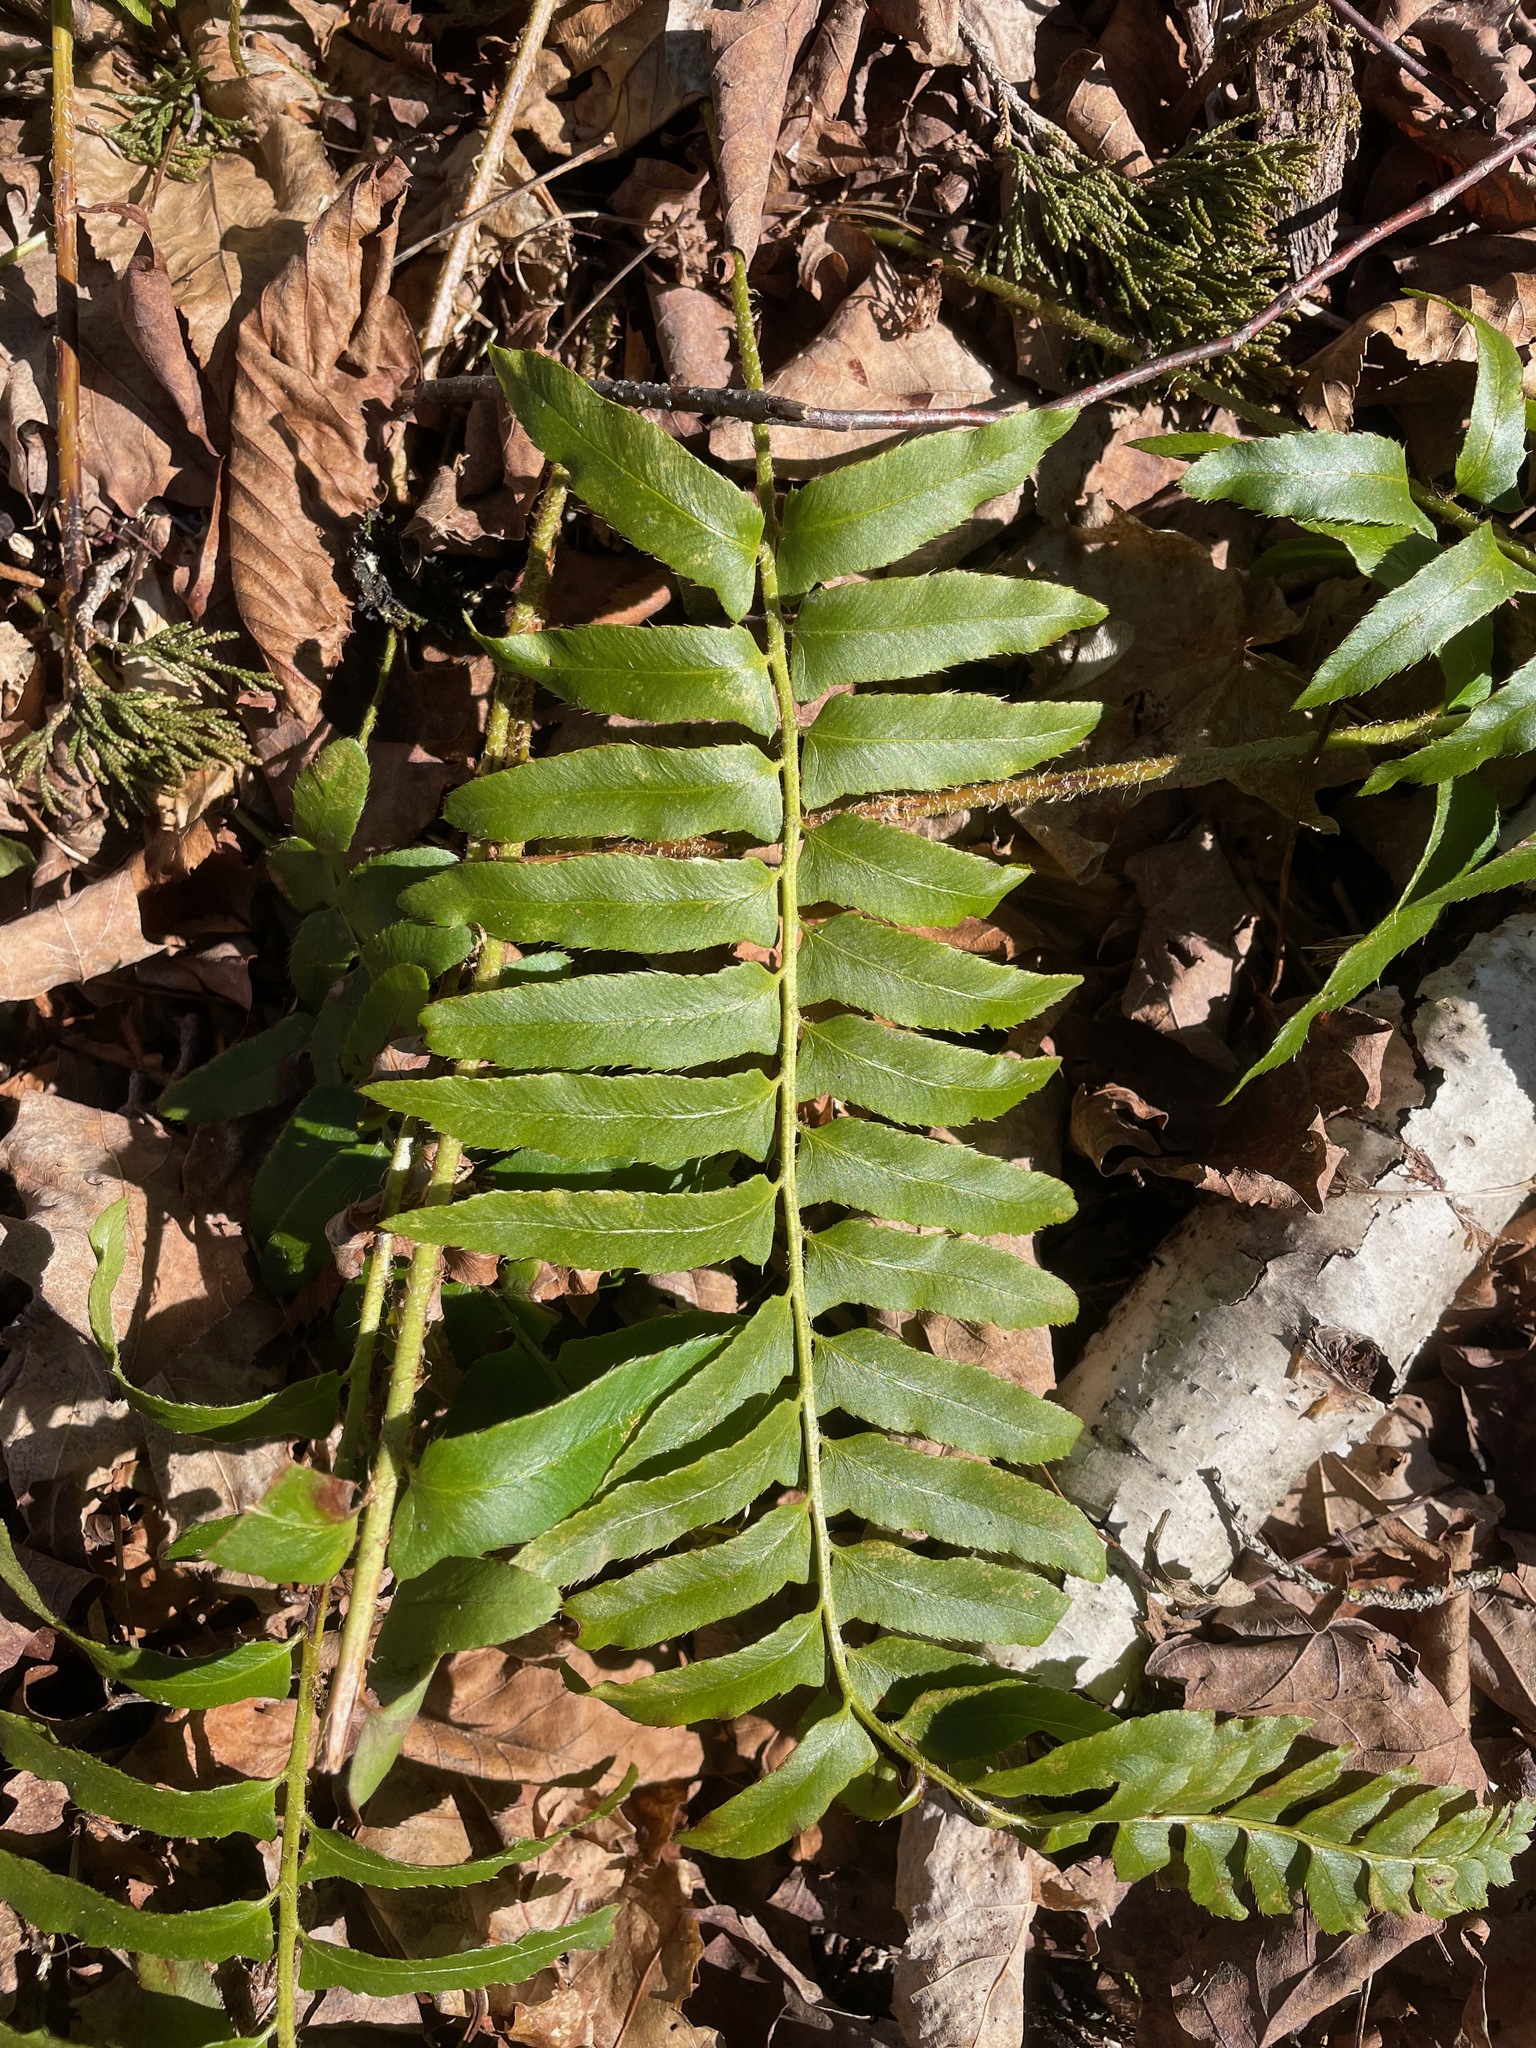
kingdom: Plantae
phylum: Tracheophyta
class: Polypodiopsida
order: Polypodiales
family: Dryopteridaceae
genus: Polystichum
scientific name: Polystichum acrostichoides
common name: Christmas fern
